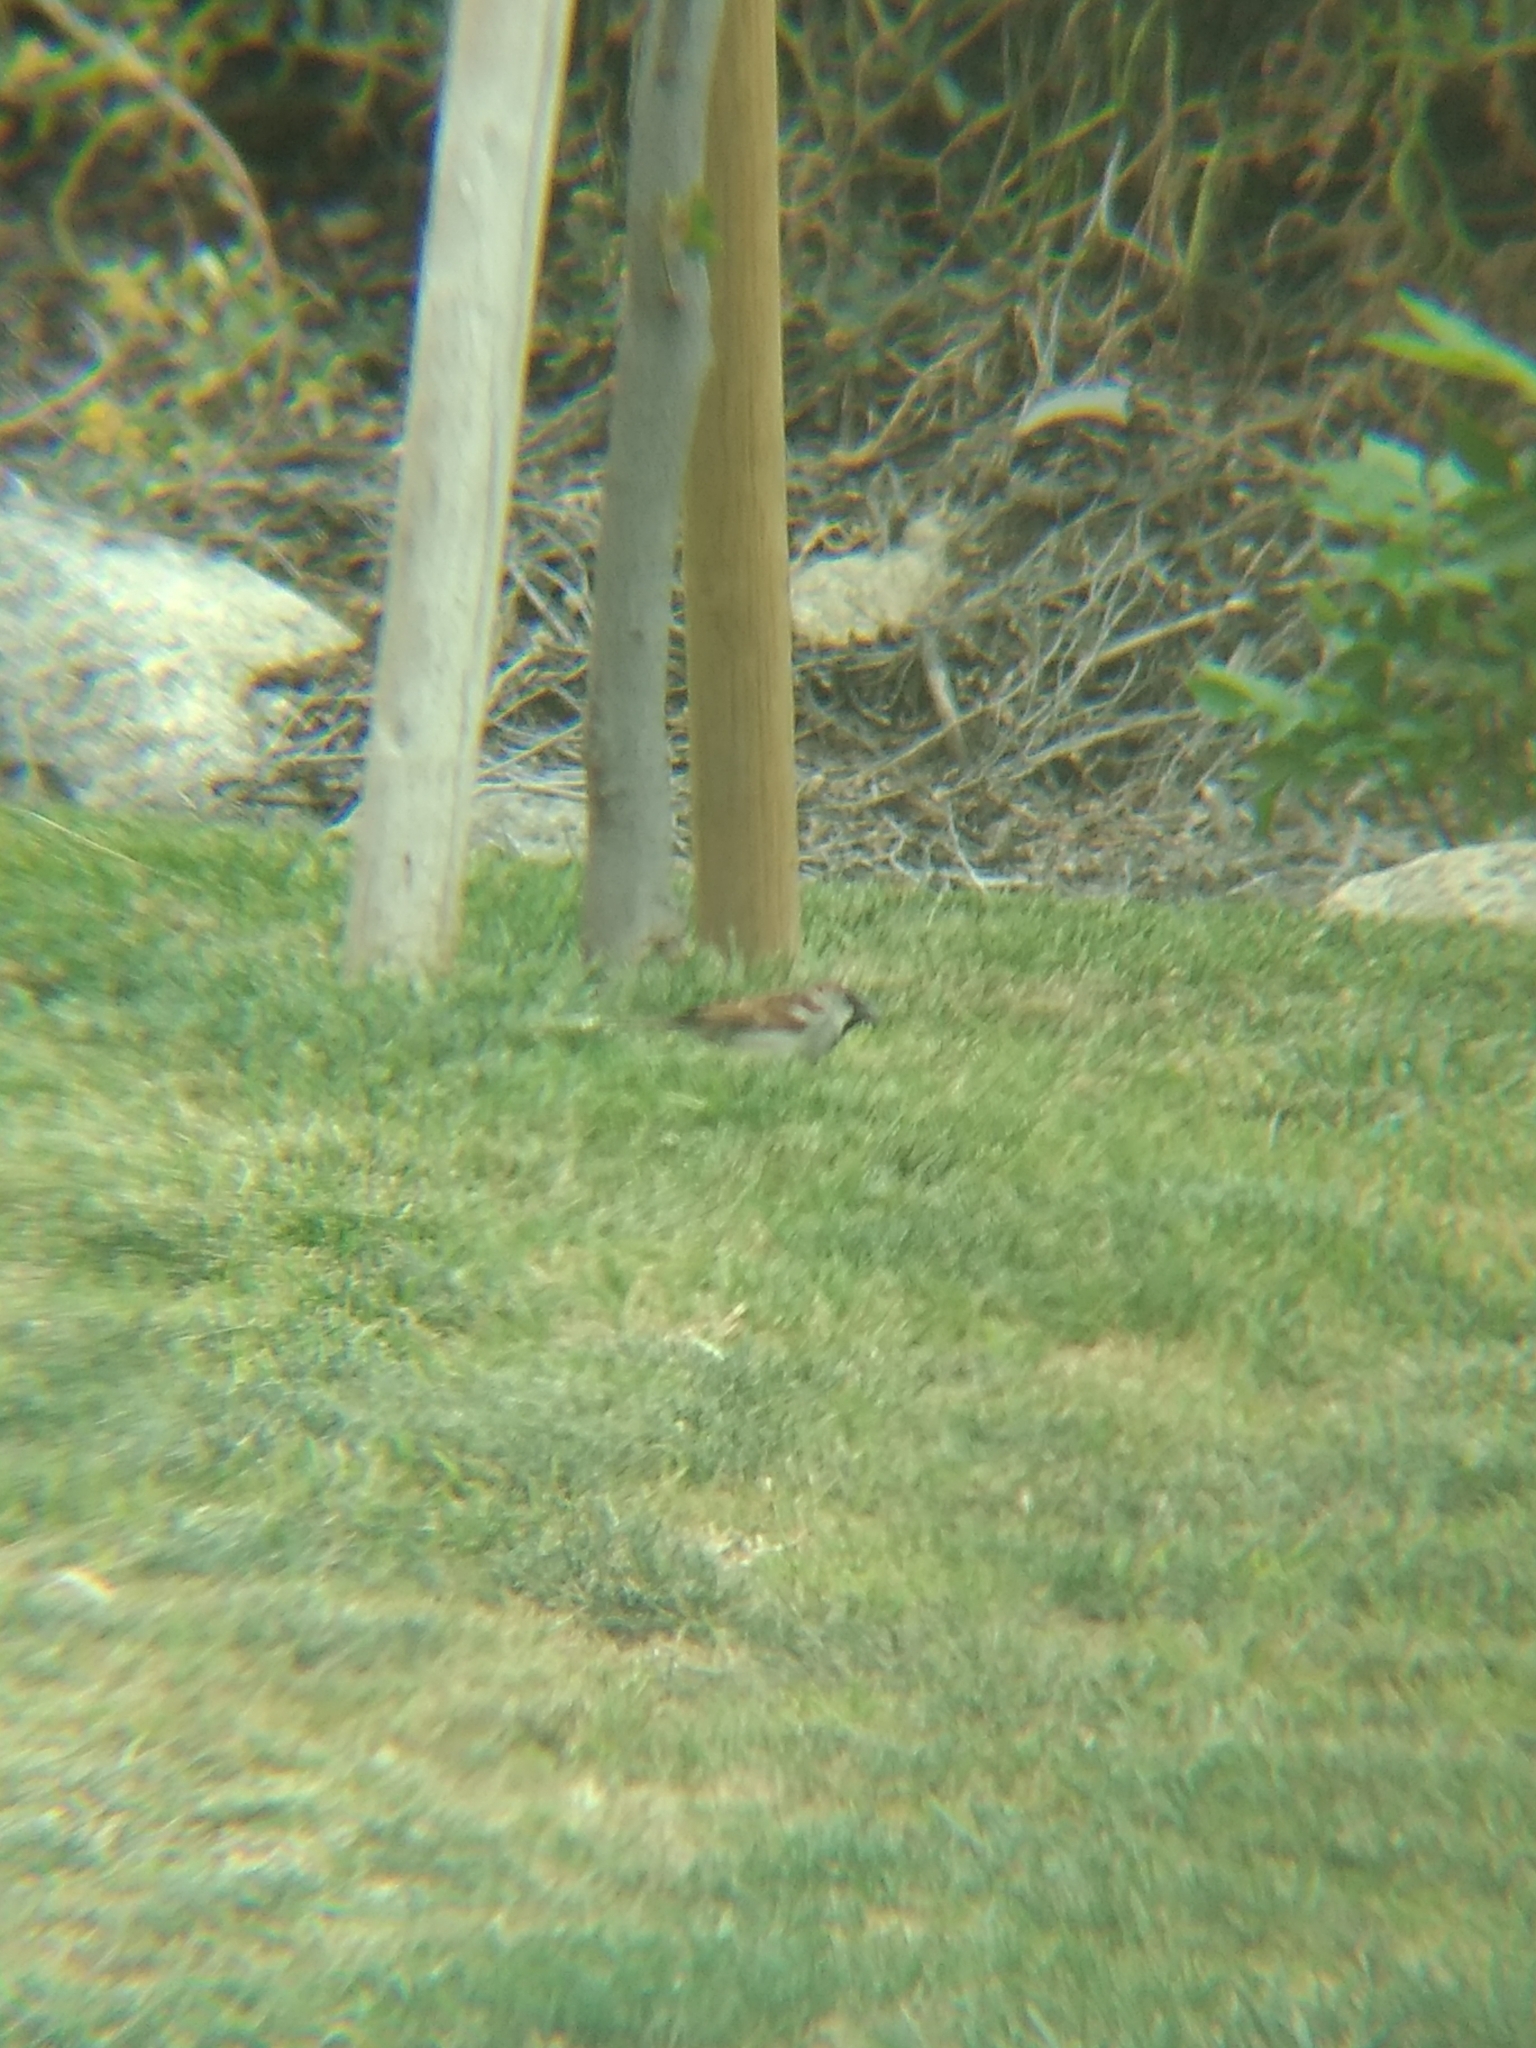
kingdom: Animalia
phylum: Chordata
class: Aves
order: Passeriformes
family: Passeridae
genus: Passer
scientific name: Passer domesticus
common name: House sparrow
